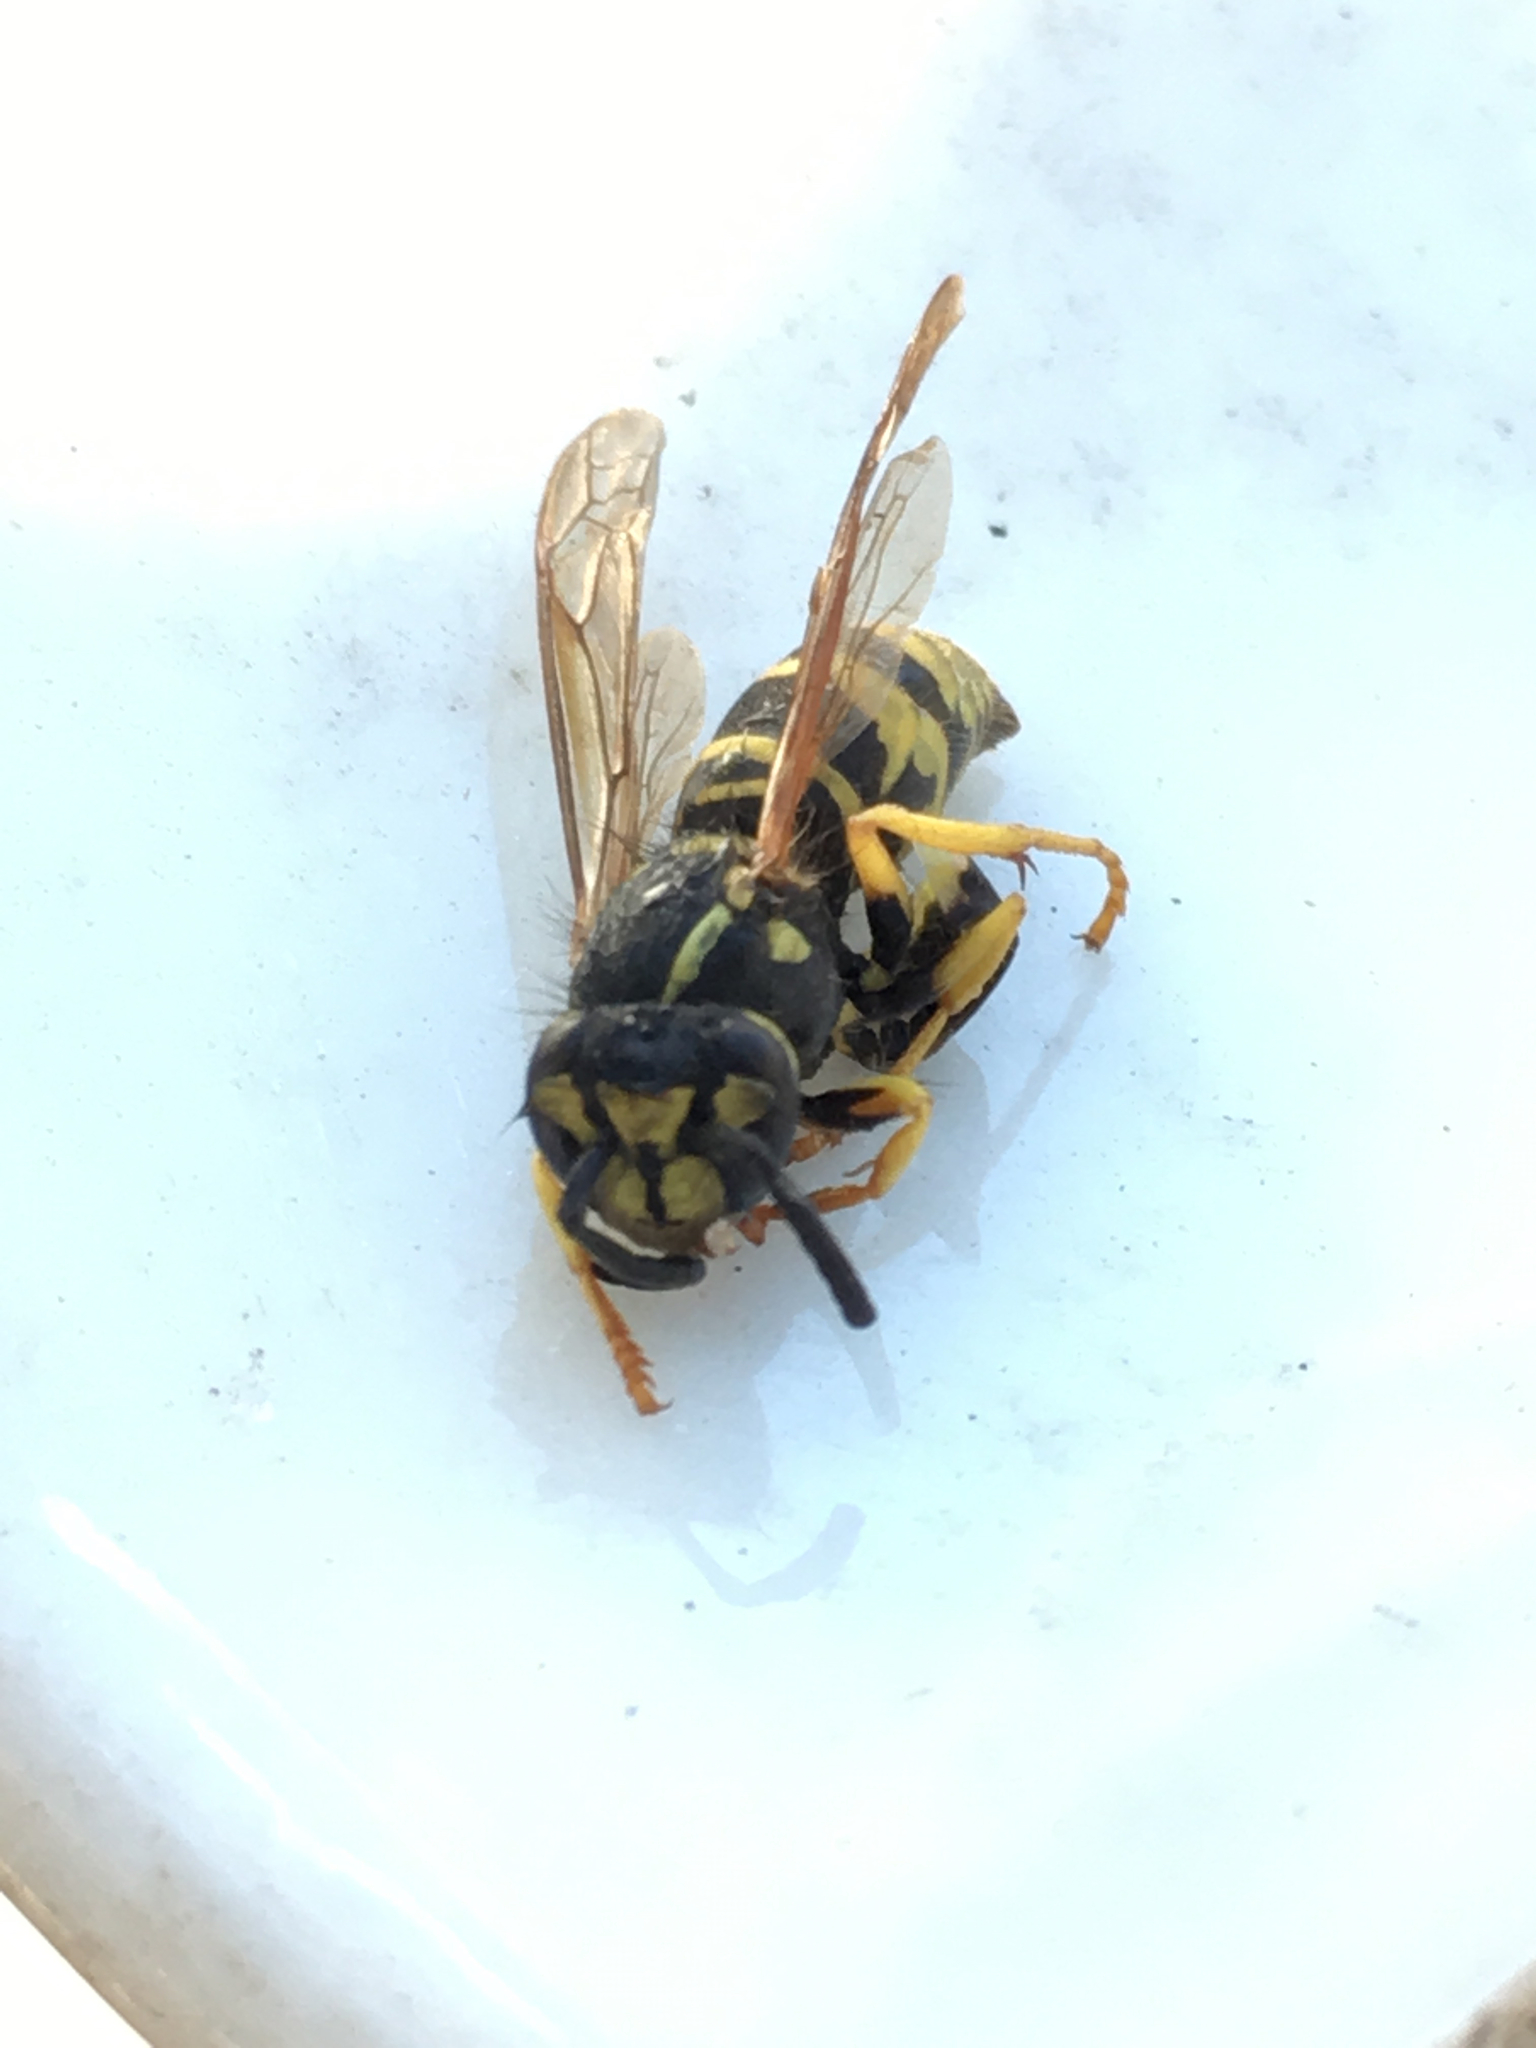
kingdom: Animalia
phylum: Arthropoda
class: Insecta
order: Hymenoptera
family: Vespidae
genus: Vespula
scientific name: Vespula maculifrons
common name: Eastern yellowjacket
